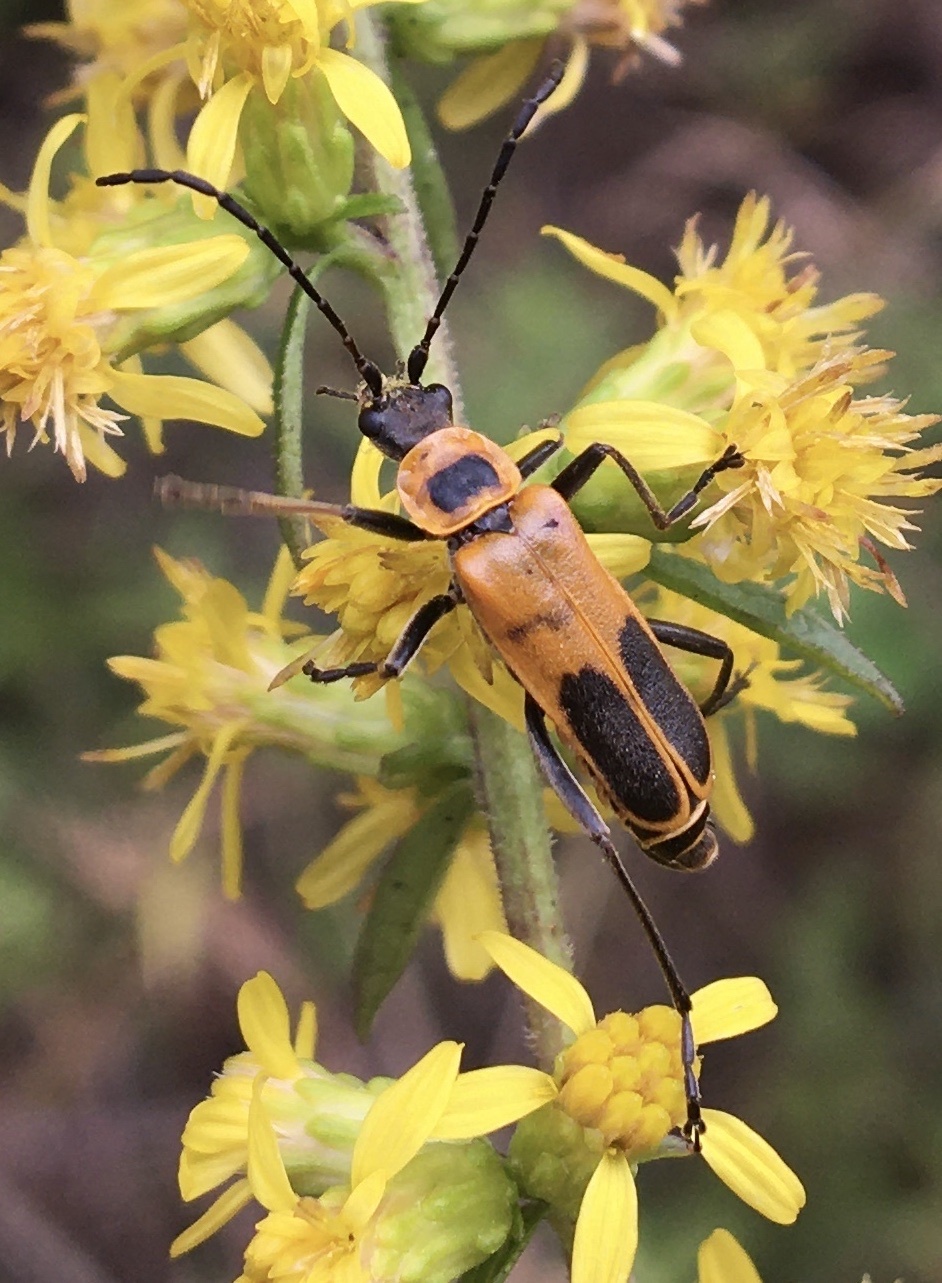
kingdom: Animalia
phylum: Arthropoda
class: Insecta
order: Coleoptera
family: Cantharidae
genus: Chauliognathus
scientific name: Chauliognathus pensylvanicus
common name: Goldenrod soldier beetle
